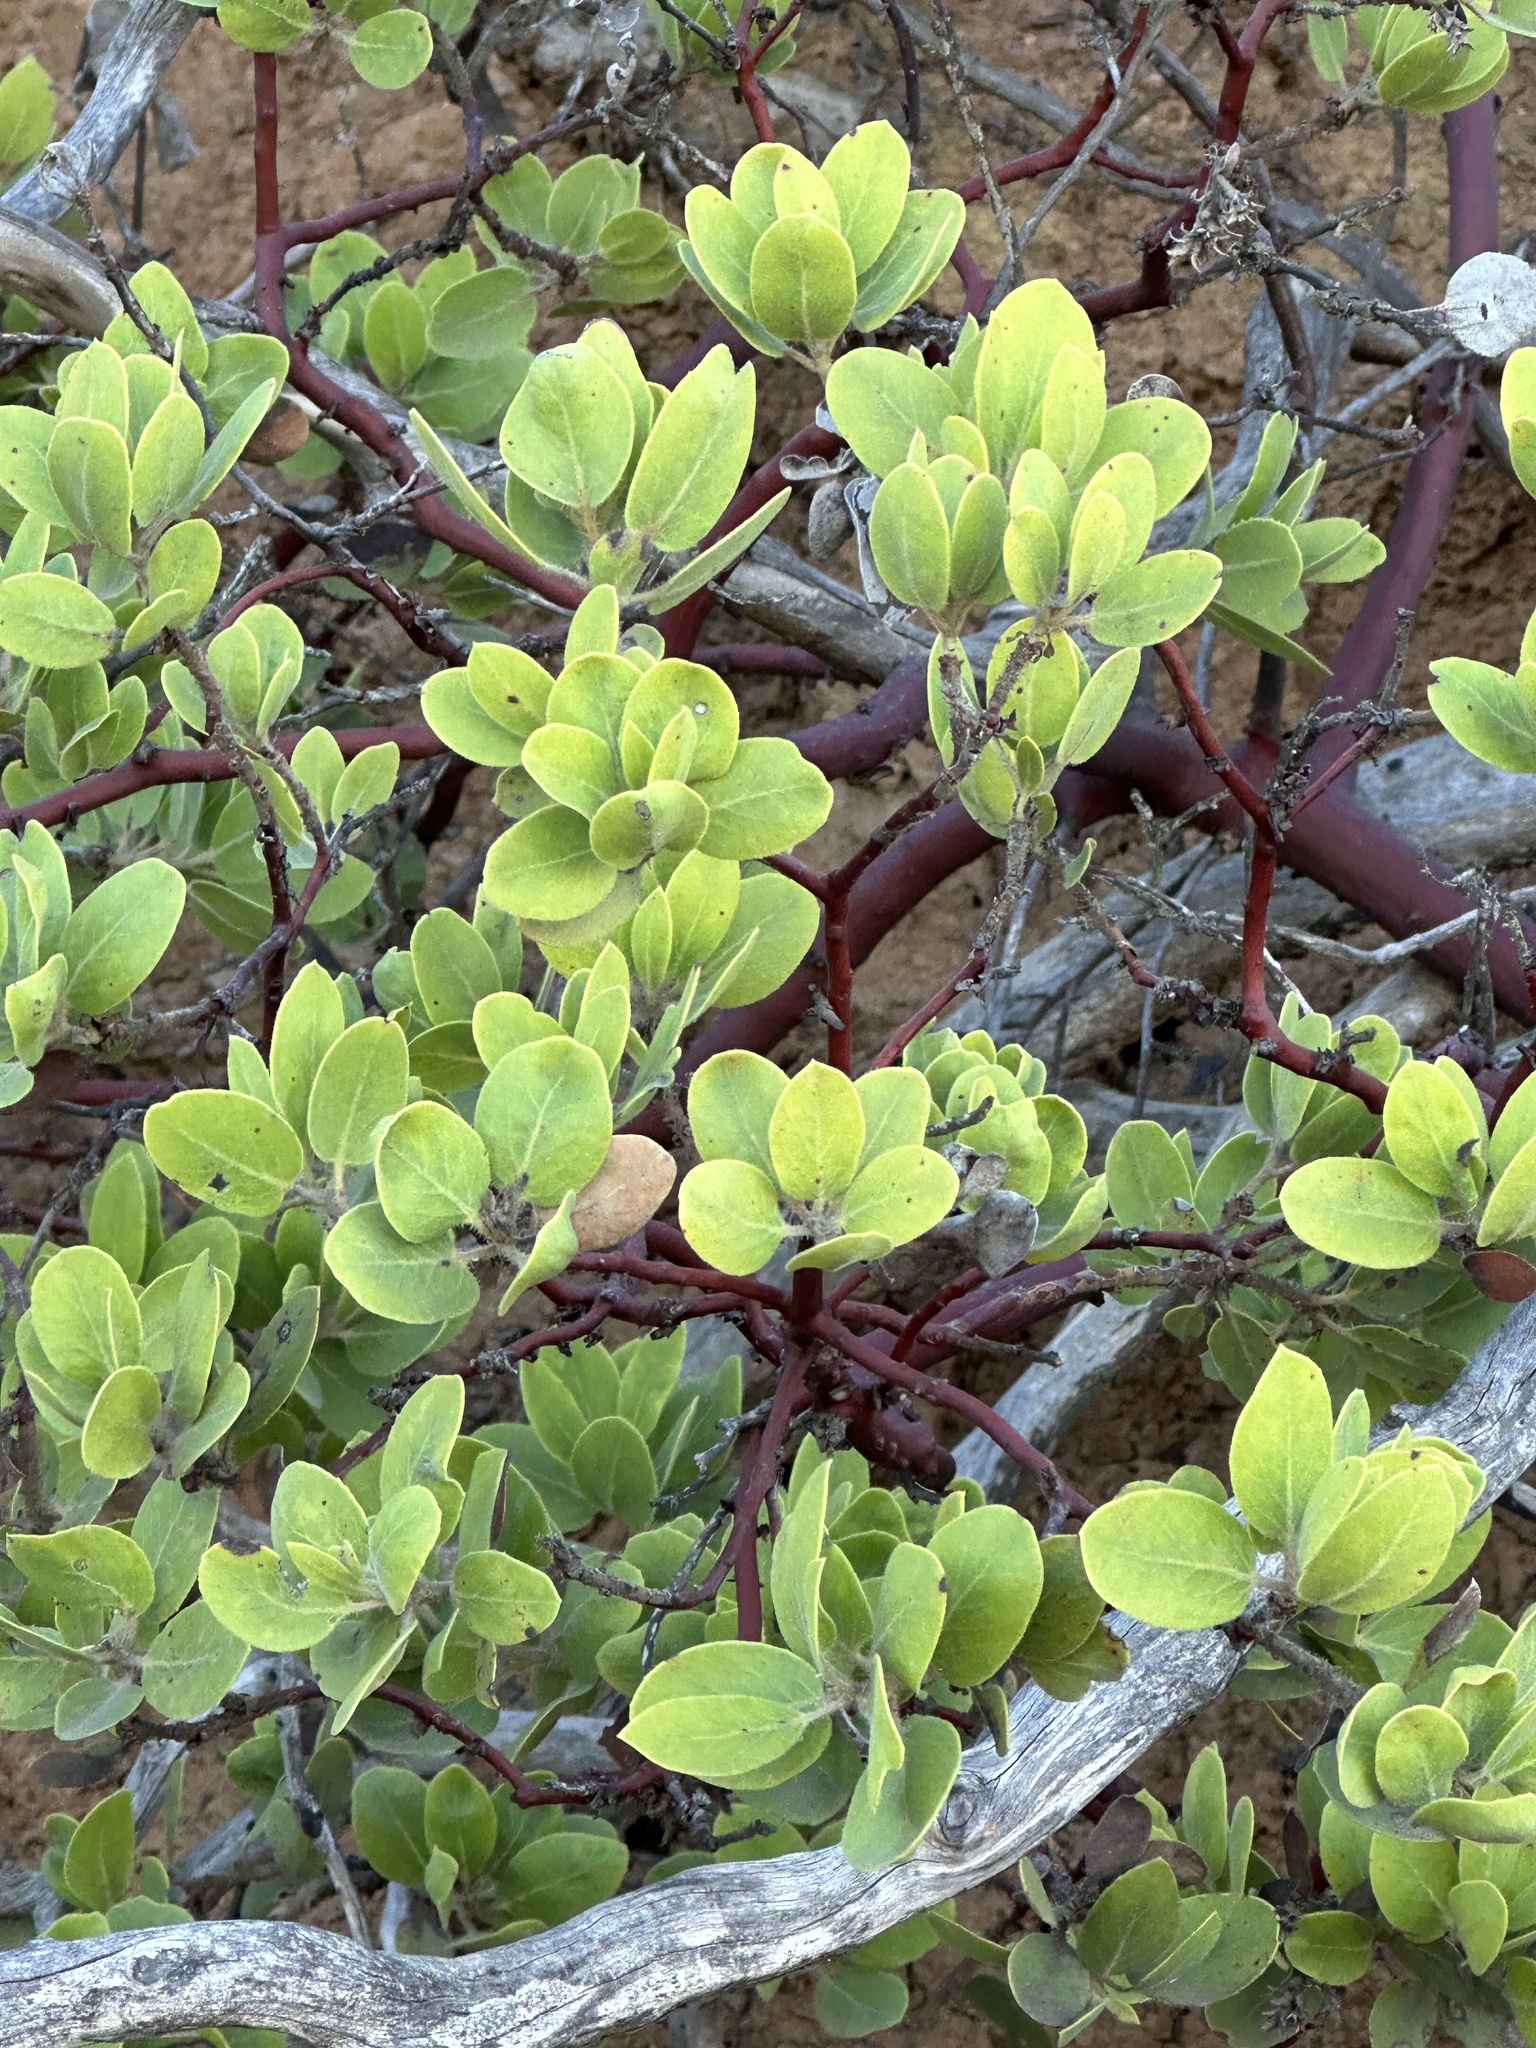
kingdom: Plantae
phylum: Tracheophyta
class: Magnoliopsida
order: Ericales
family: Ericaceae
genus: Arctostaphylos
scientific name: Arctostaphylos glandulosa
